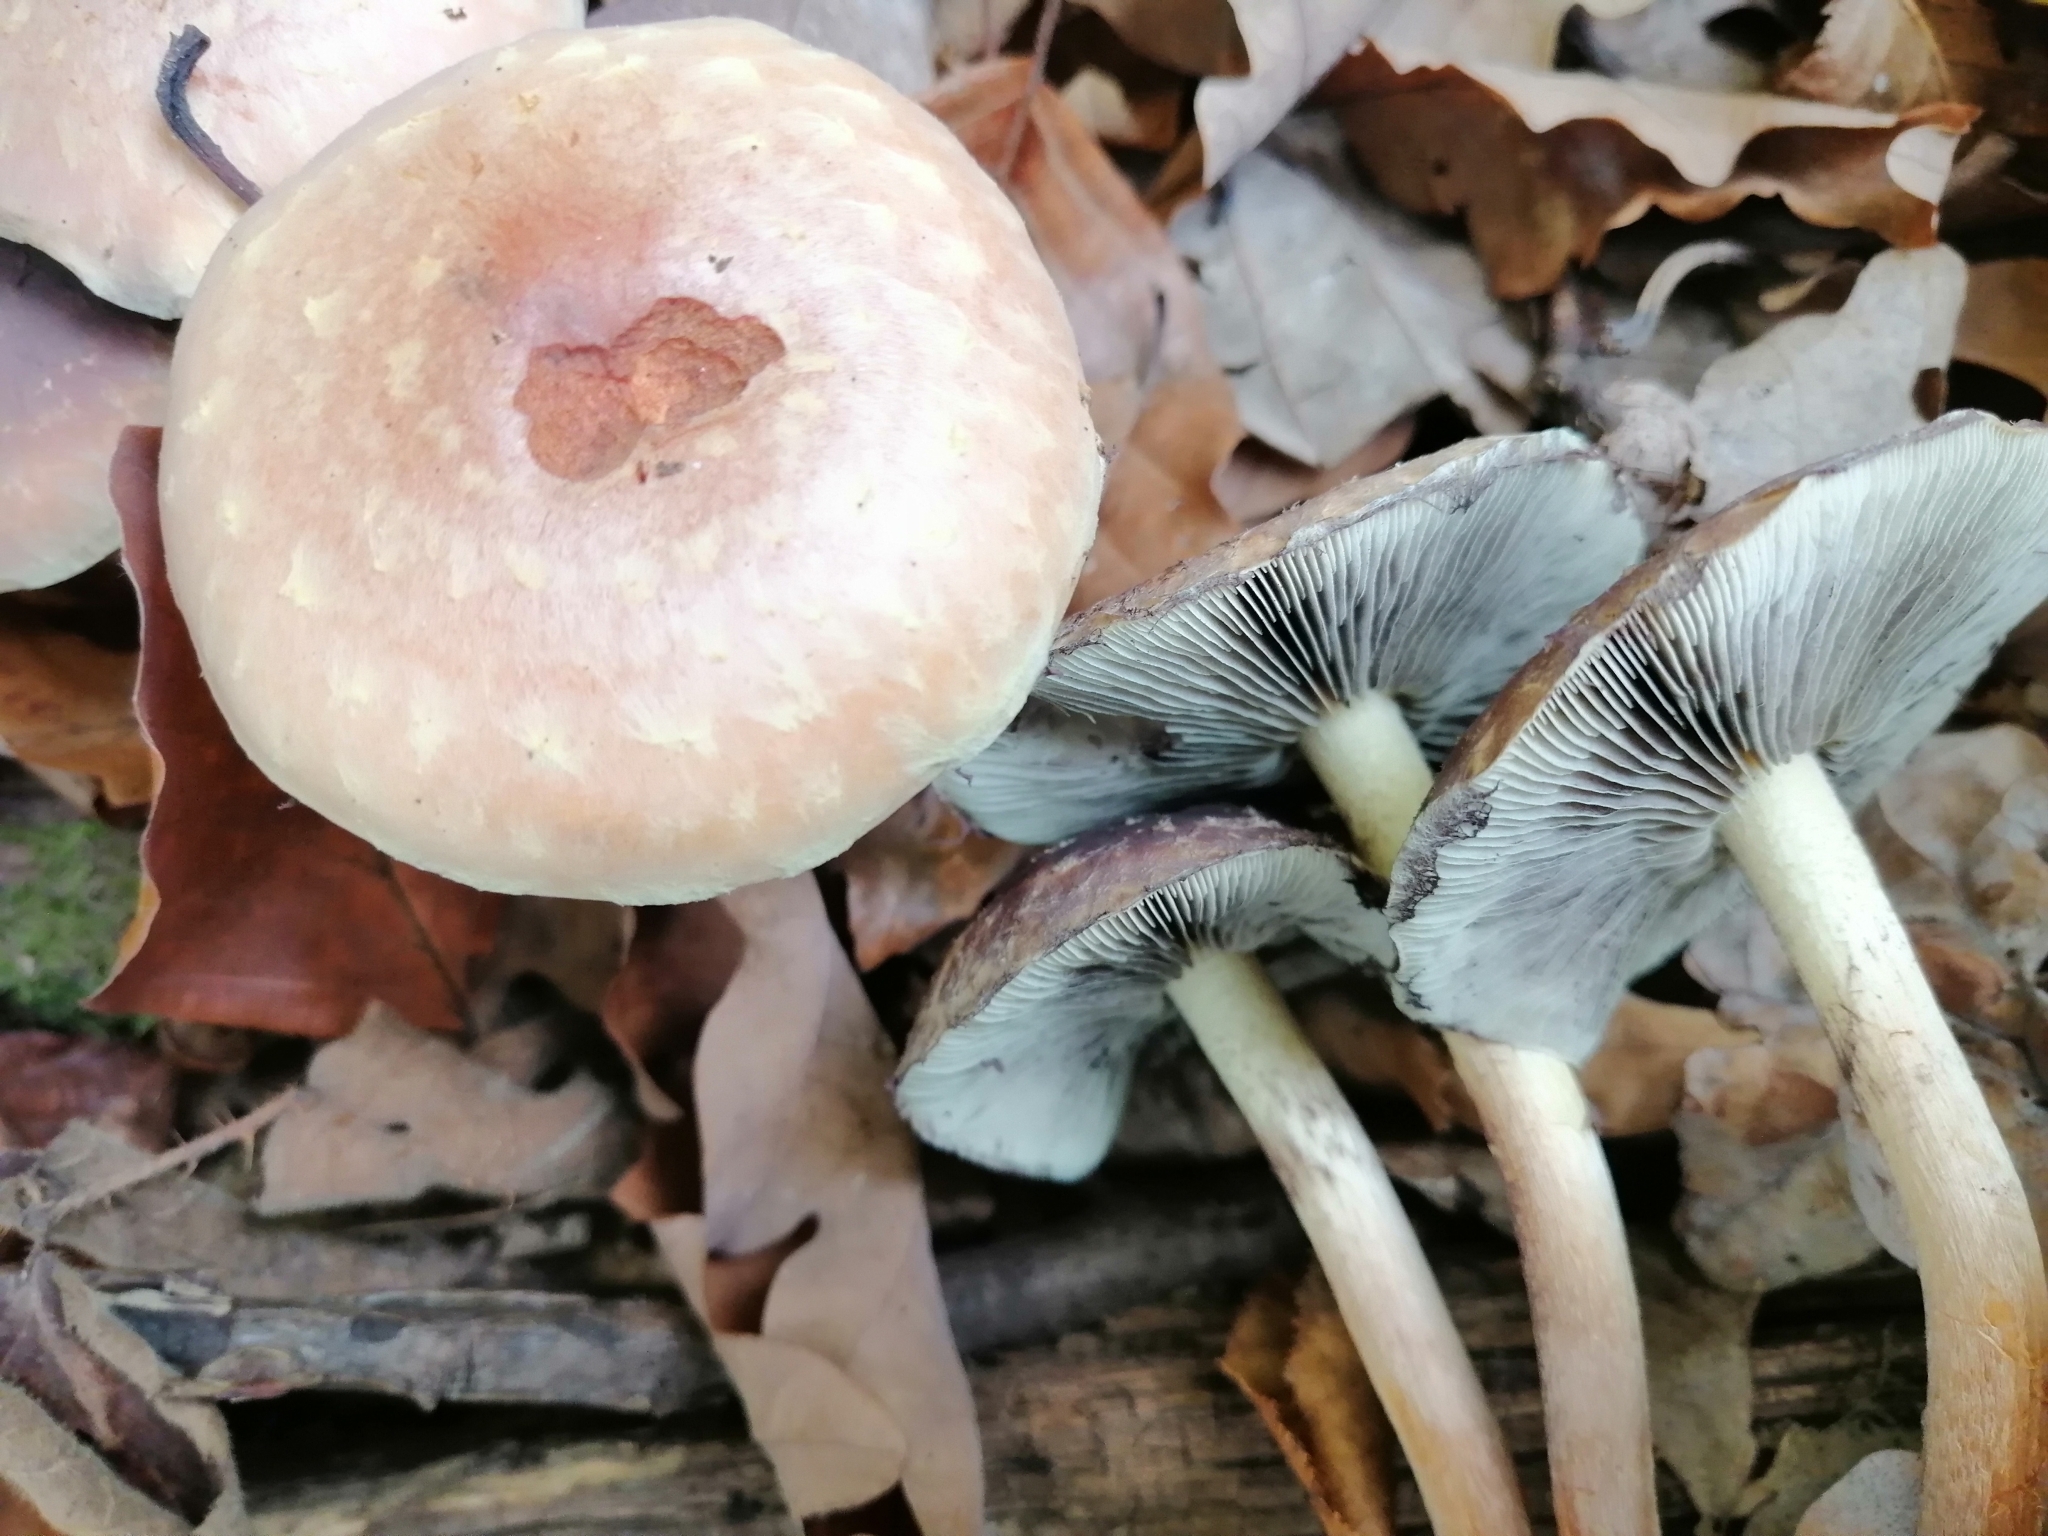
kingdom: Fungi
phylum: Basidiomycota
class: Agaricomycetes
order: Agaricales
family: Strophariaceae
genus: Hypholoma
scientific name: Hypholoma lateritium
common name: Brick caps
